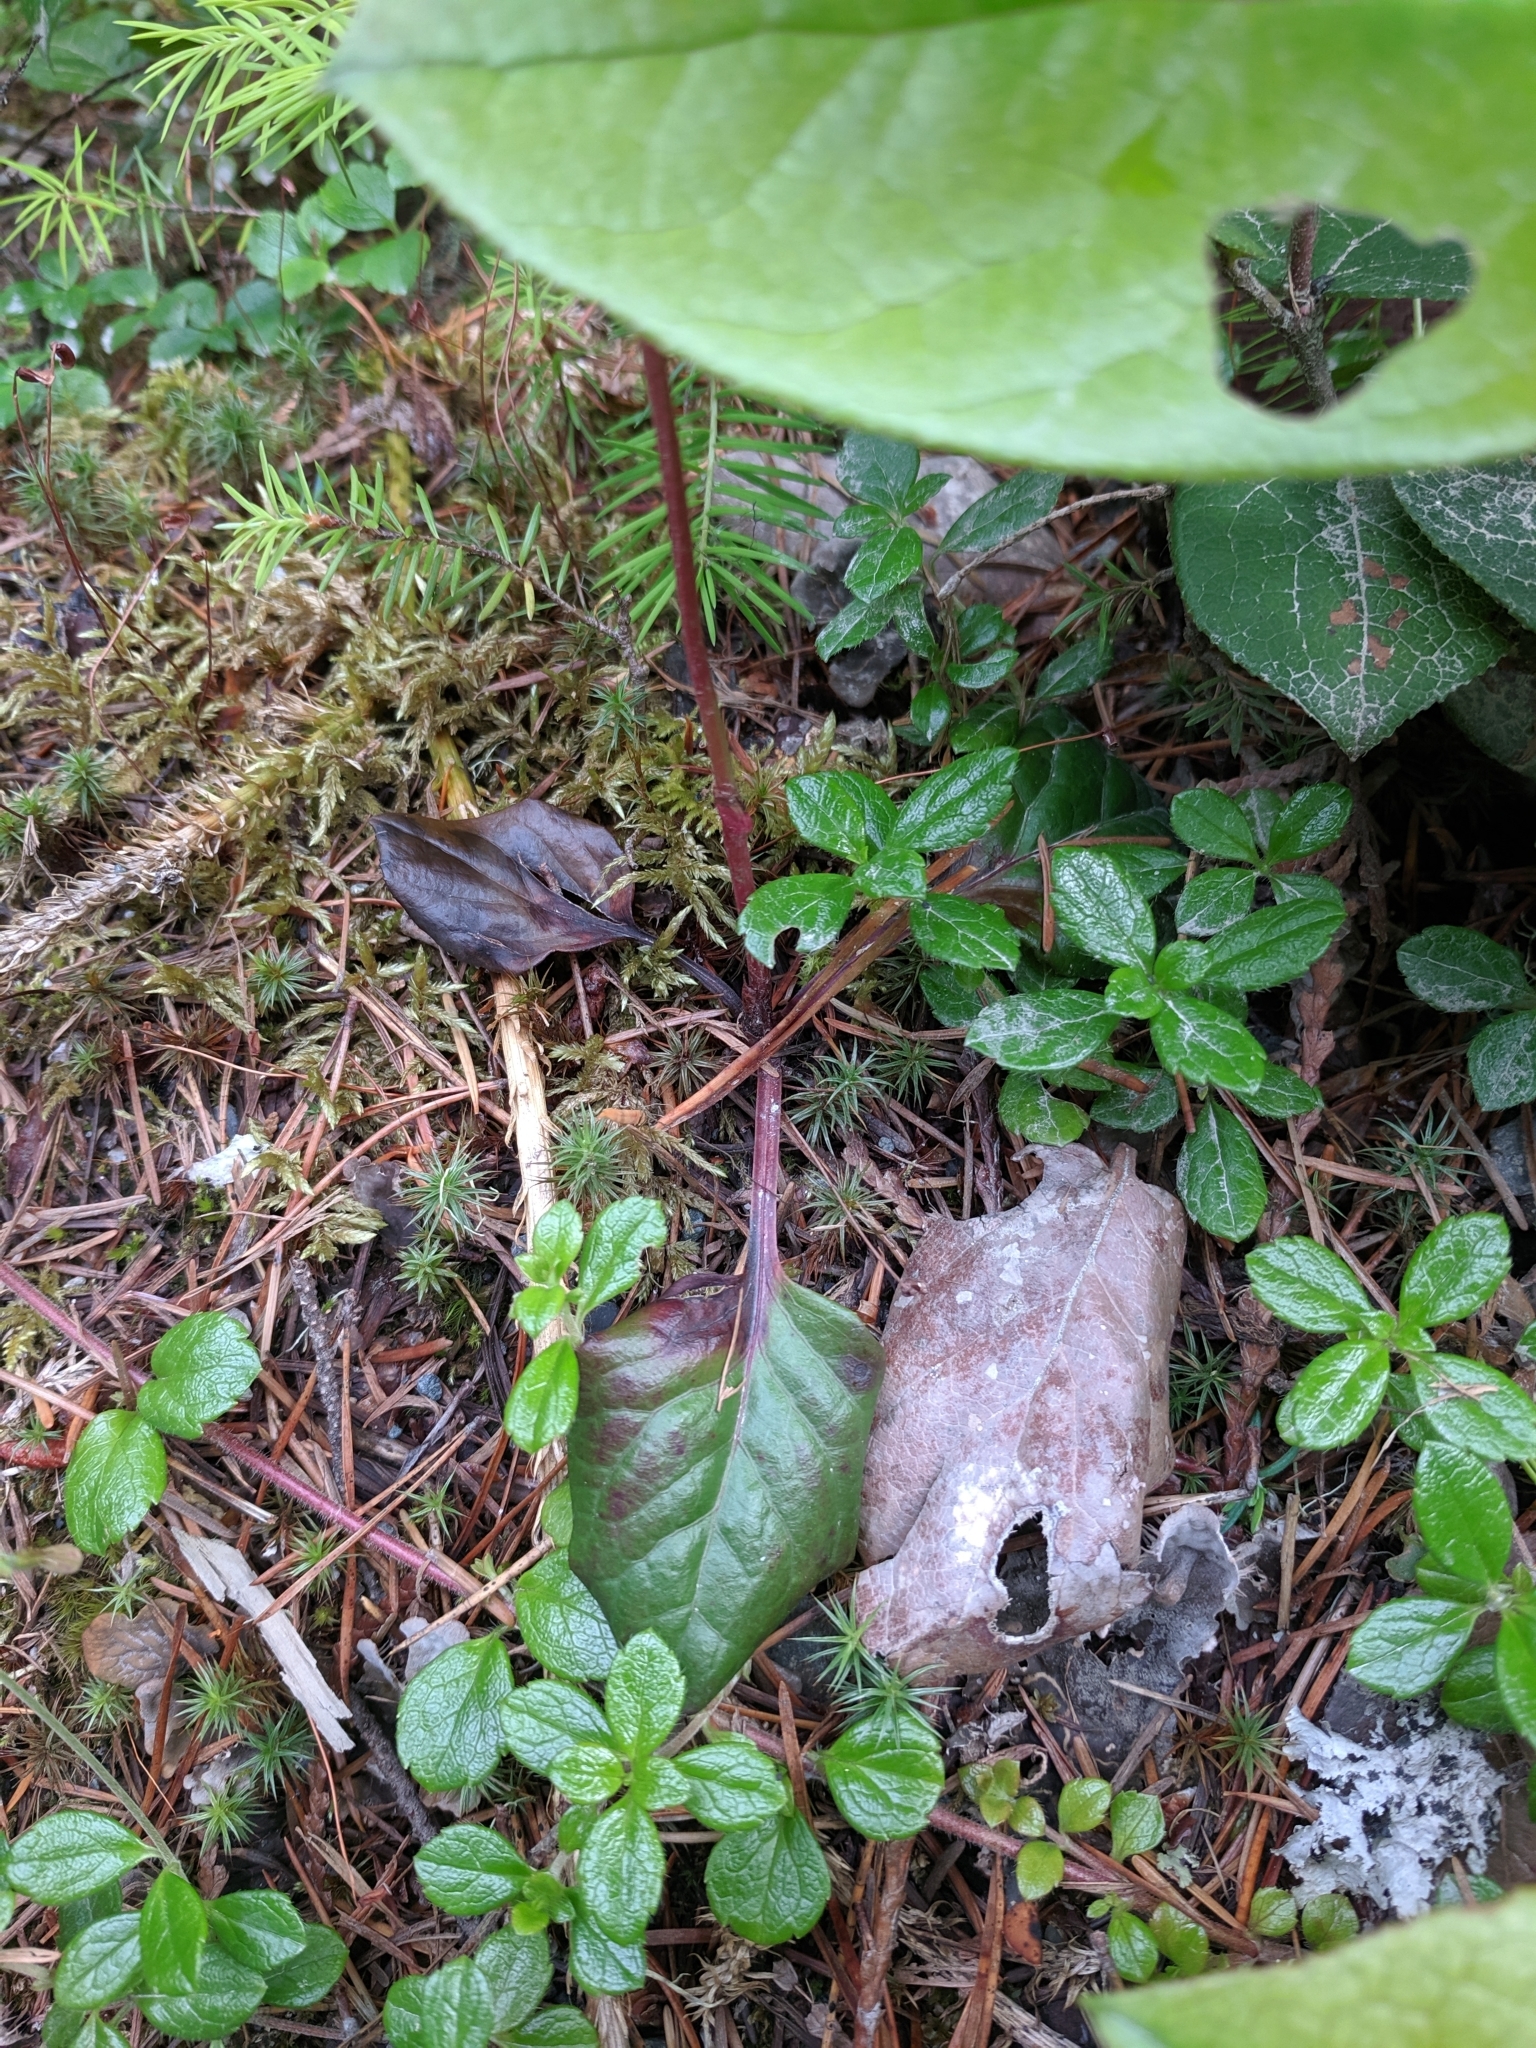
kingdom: Plantae
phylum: Tracheophyta
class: Magnoliopsida
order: Ericales
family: Ericaceae
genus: Pyrola
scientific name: Pyrola asarifolia
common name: Bog wintergreen
